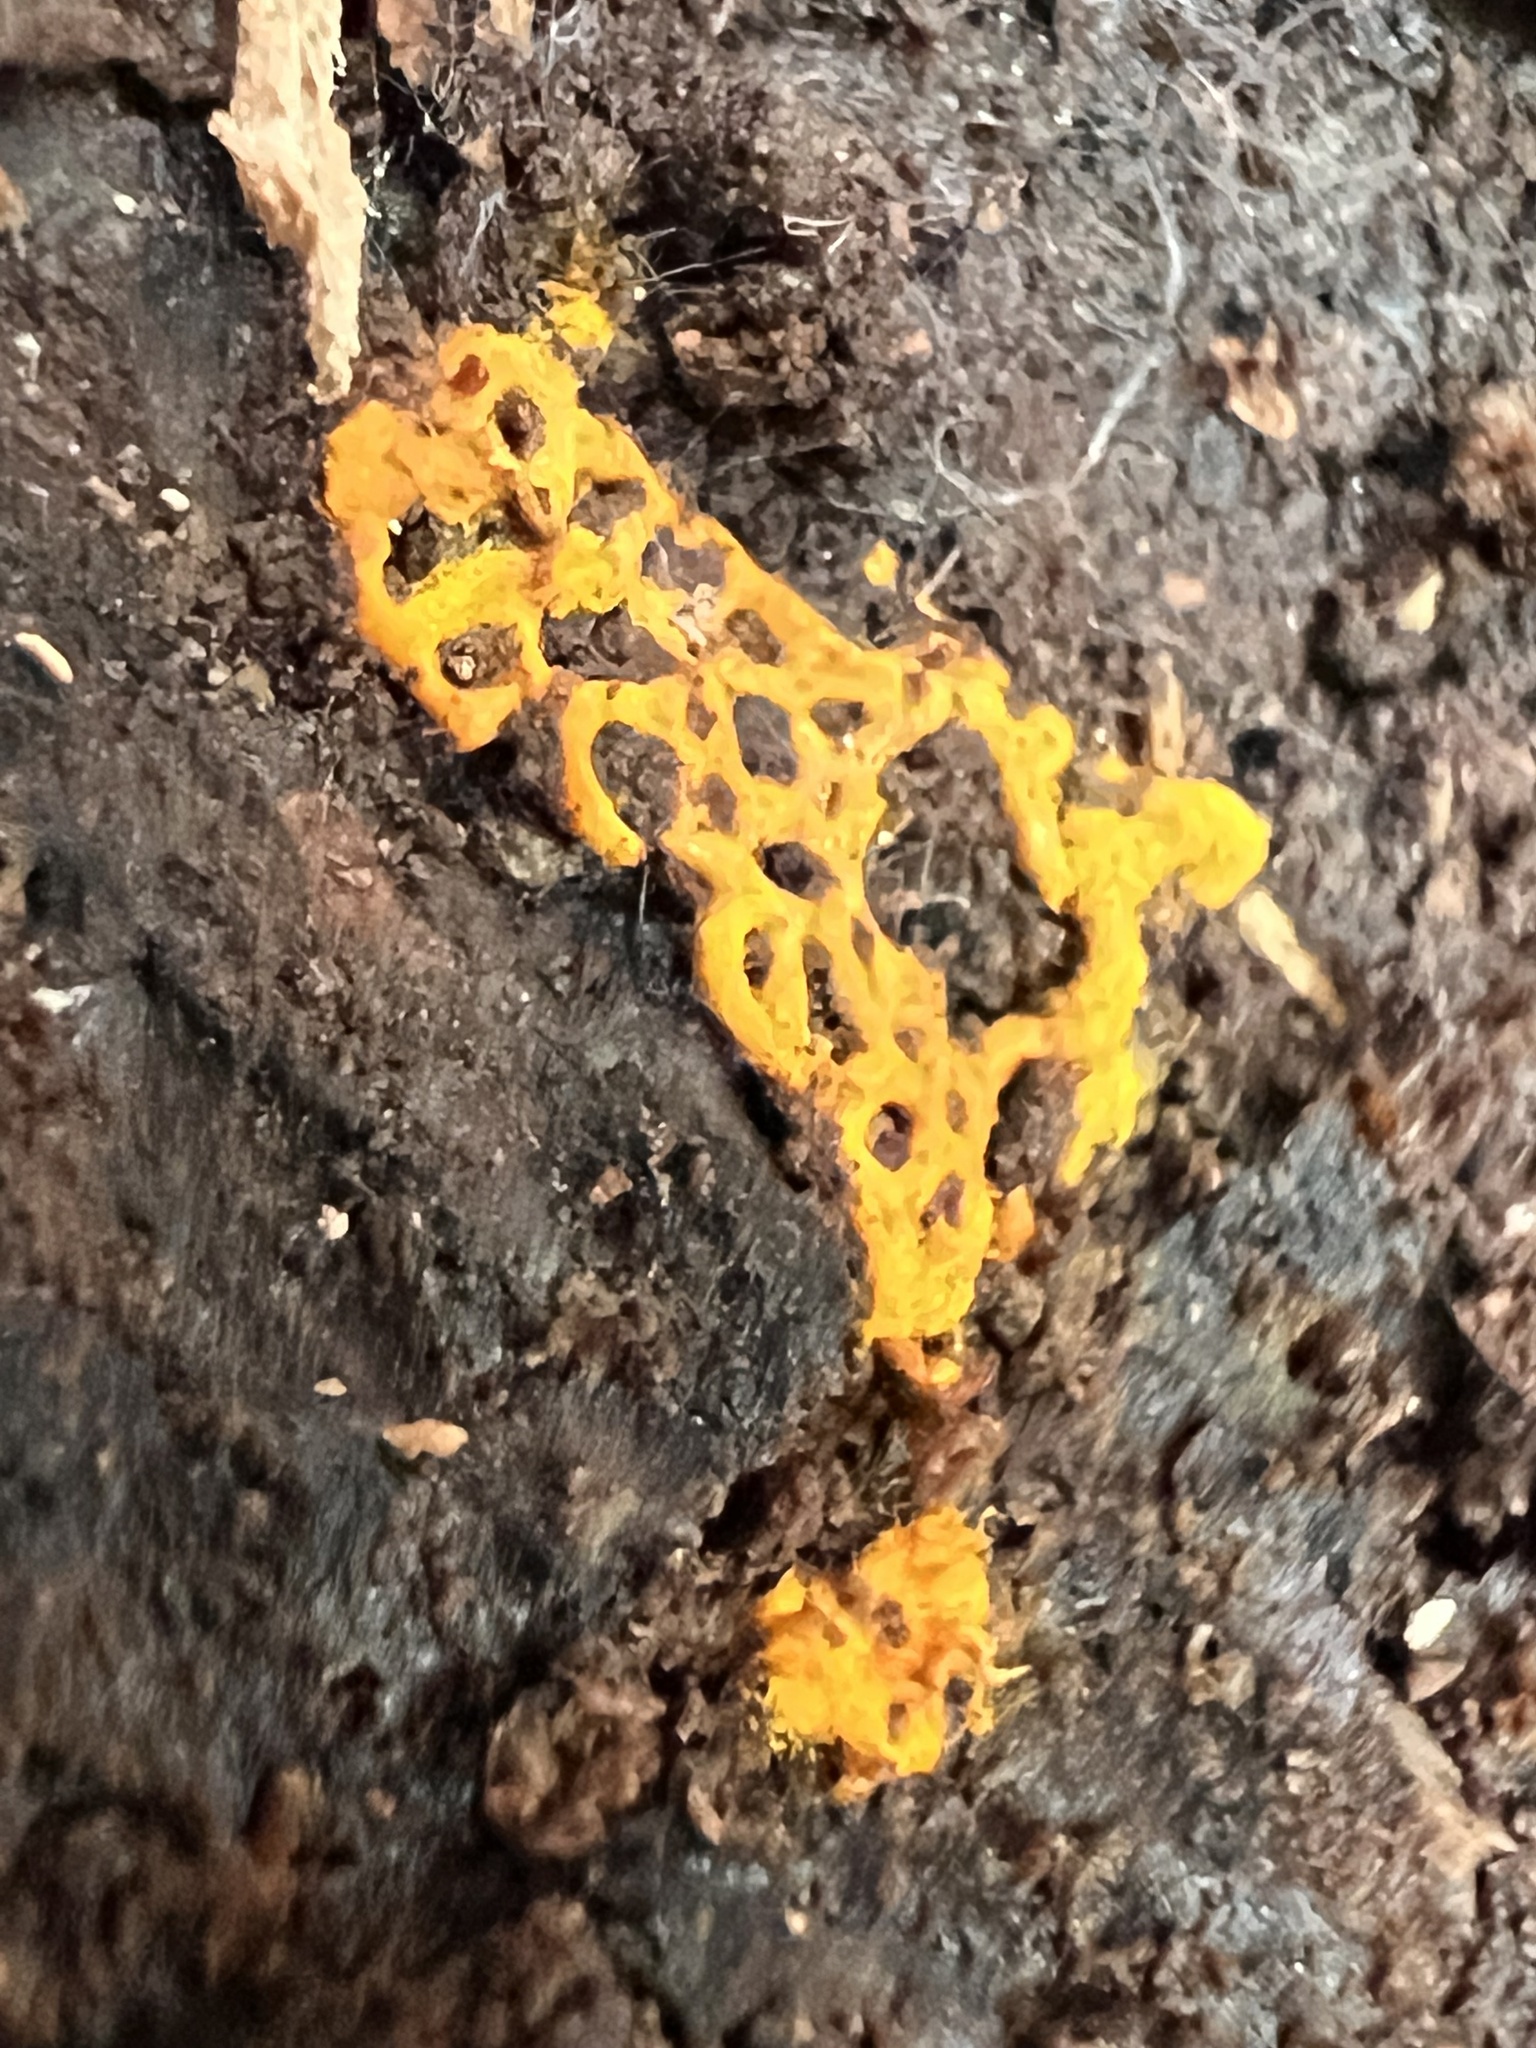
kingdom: Protozoa
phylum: Mycetozoa
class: Myxomycetes
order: Trichiales
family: Arcyriaceae
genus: Hemitrichia
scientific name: Hemitrichia serpula
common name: Pretzel slime mold
